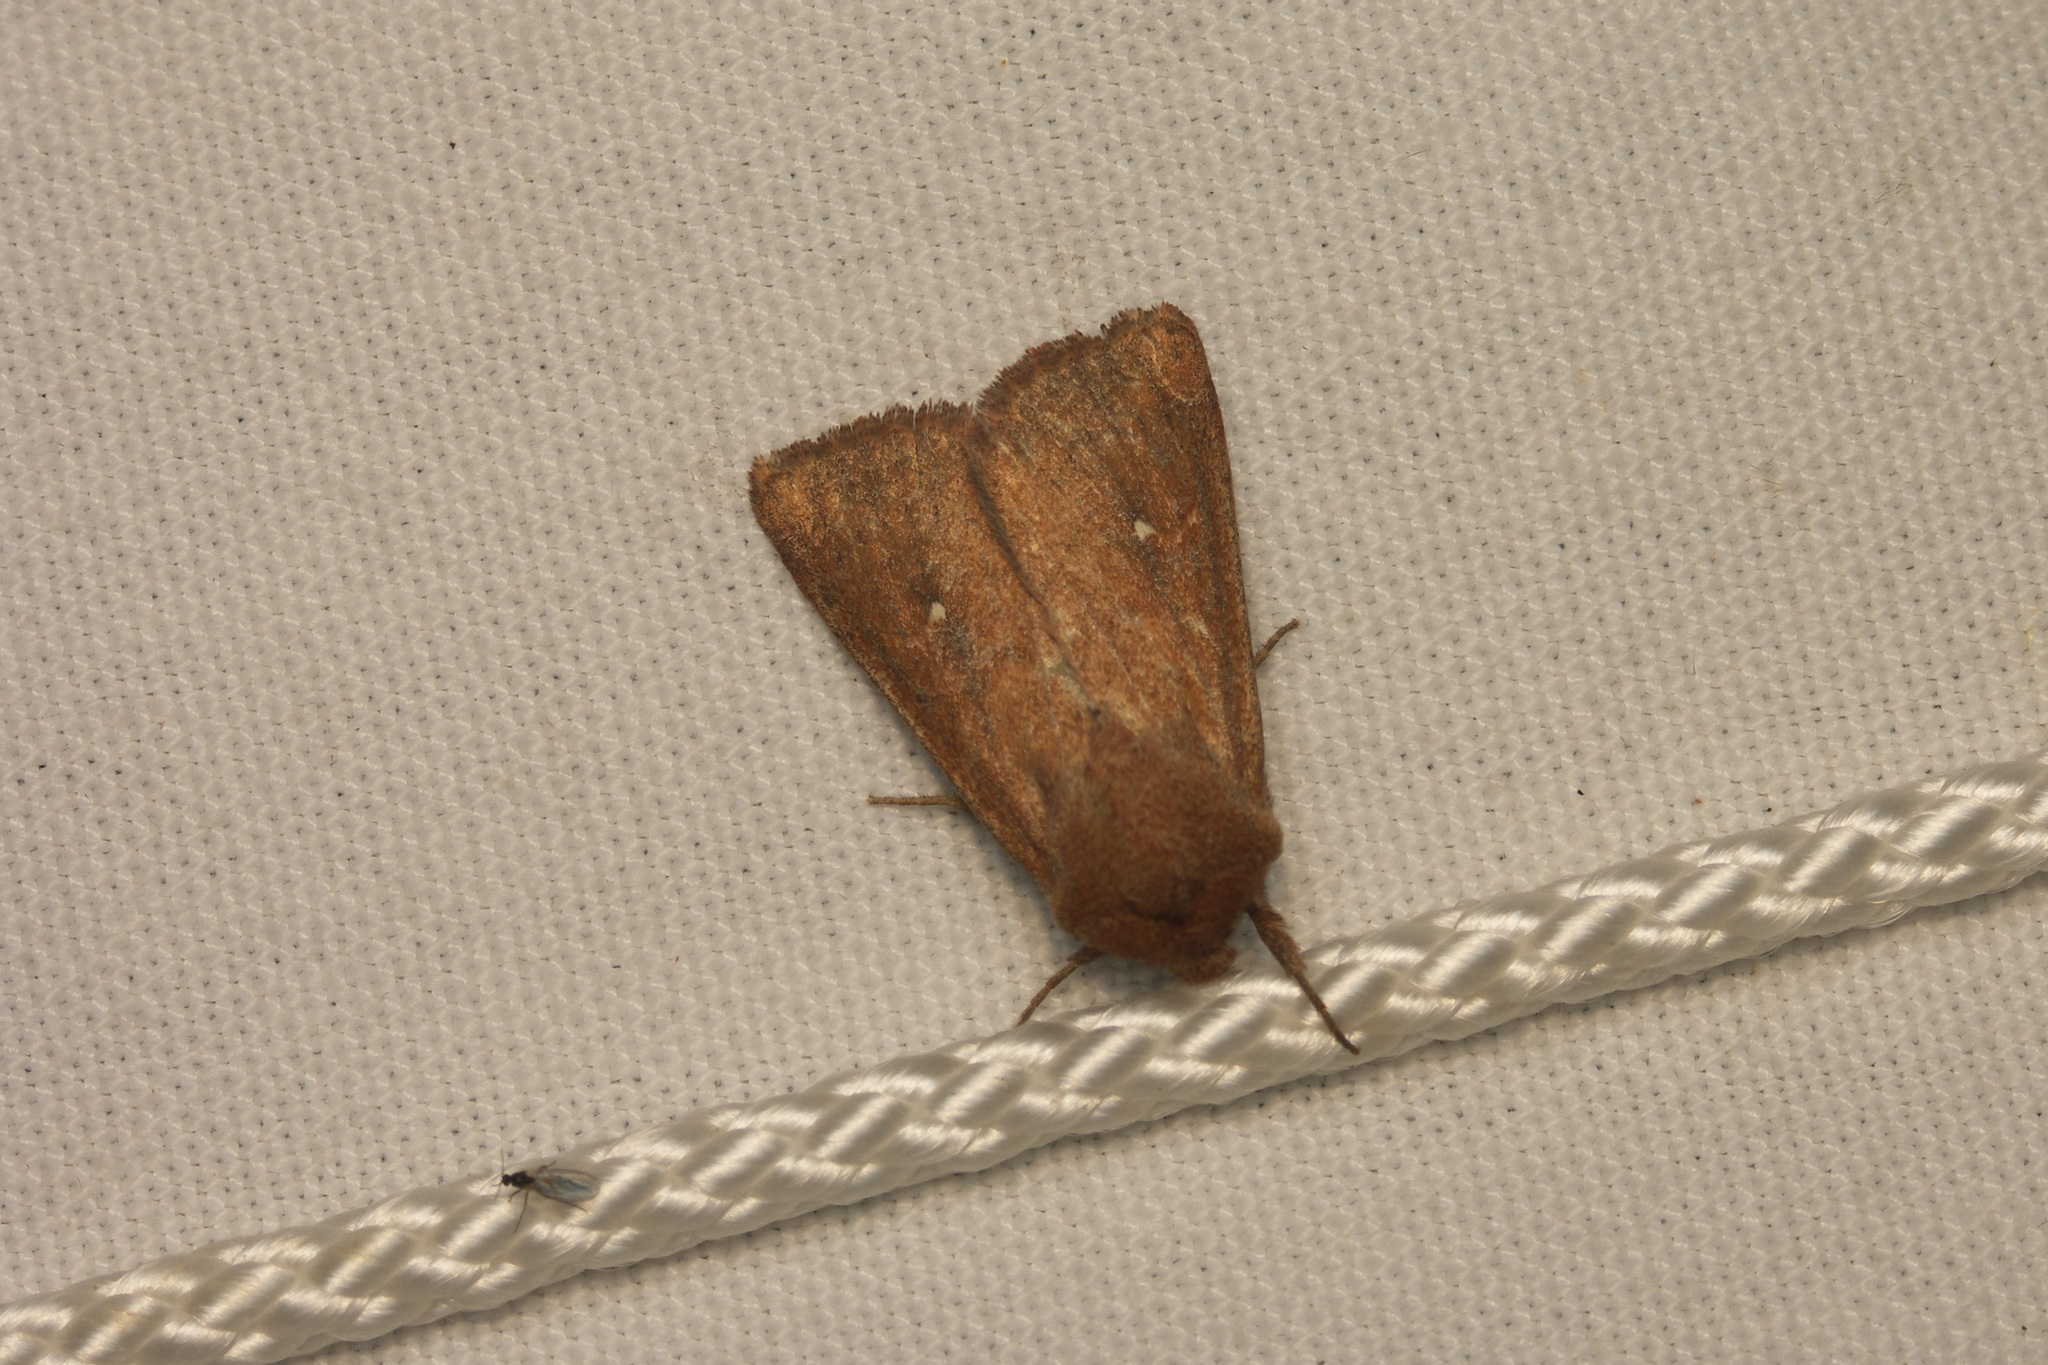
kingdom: Animalia
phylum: Arthropoda
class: Insecta
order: Lepidoptera
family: Noctuidae
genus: Mythimna
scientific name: Mythimna albipuncta
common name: White-point
